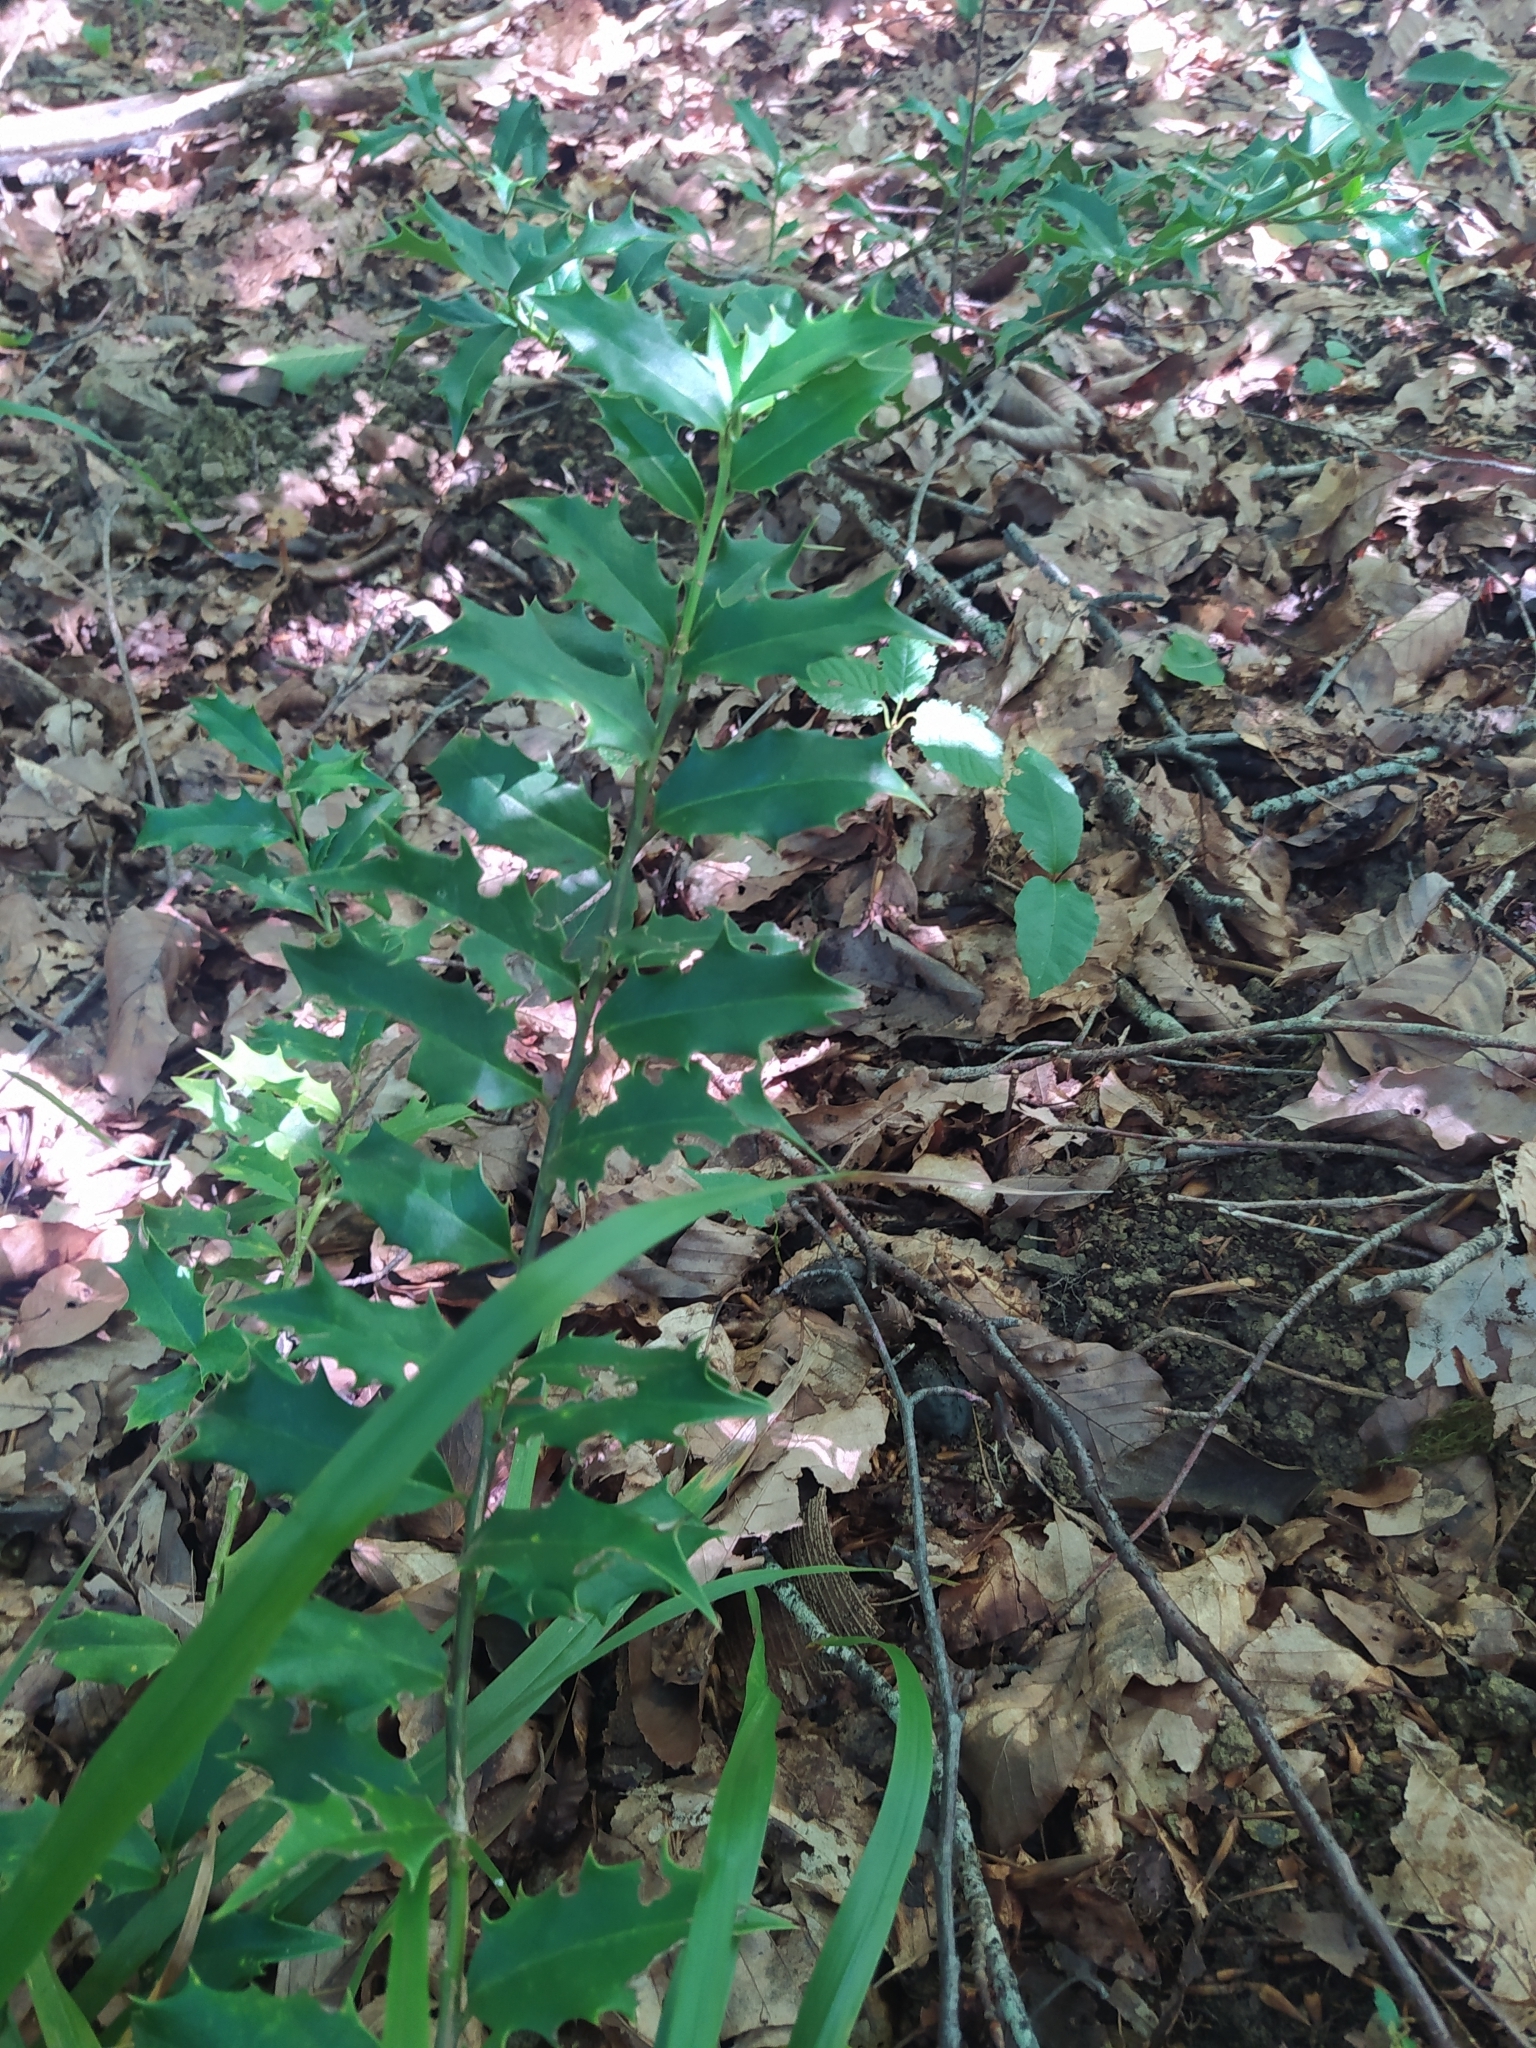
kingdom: Plantae
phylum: Tracheophyta
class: Magnoliopsida
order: Aquifoliales
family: Aquifoliaceae
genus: Ilex
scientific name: Ilex colchica
